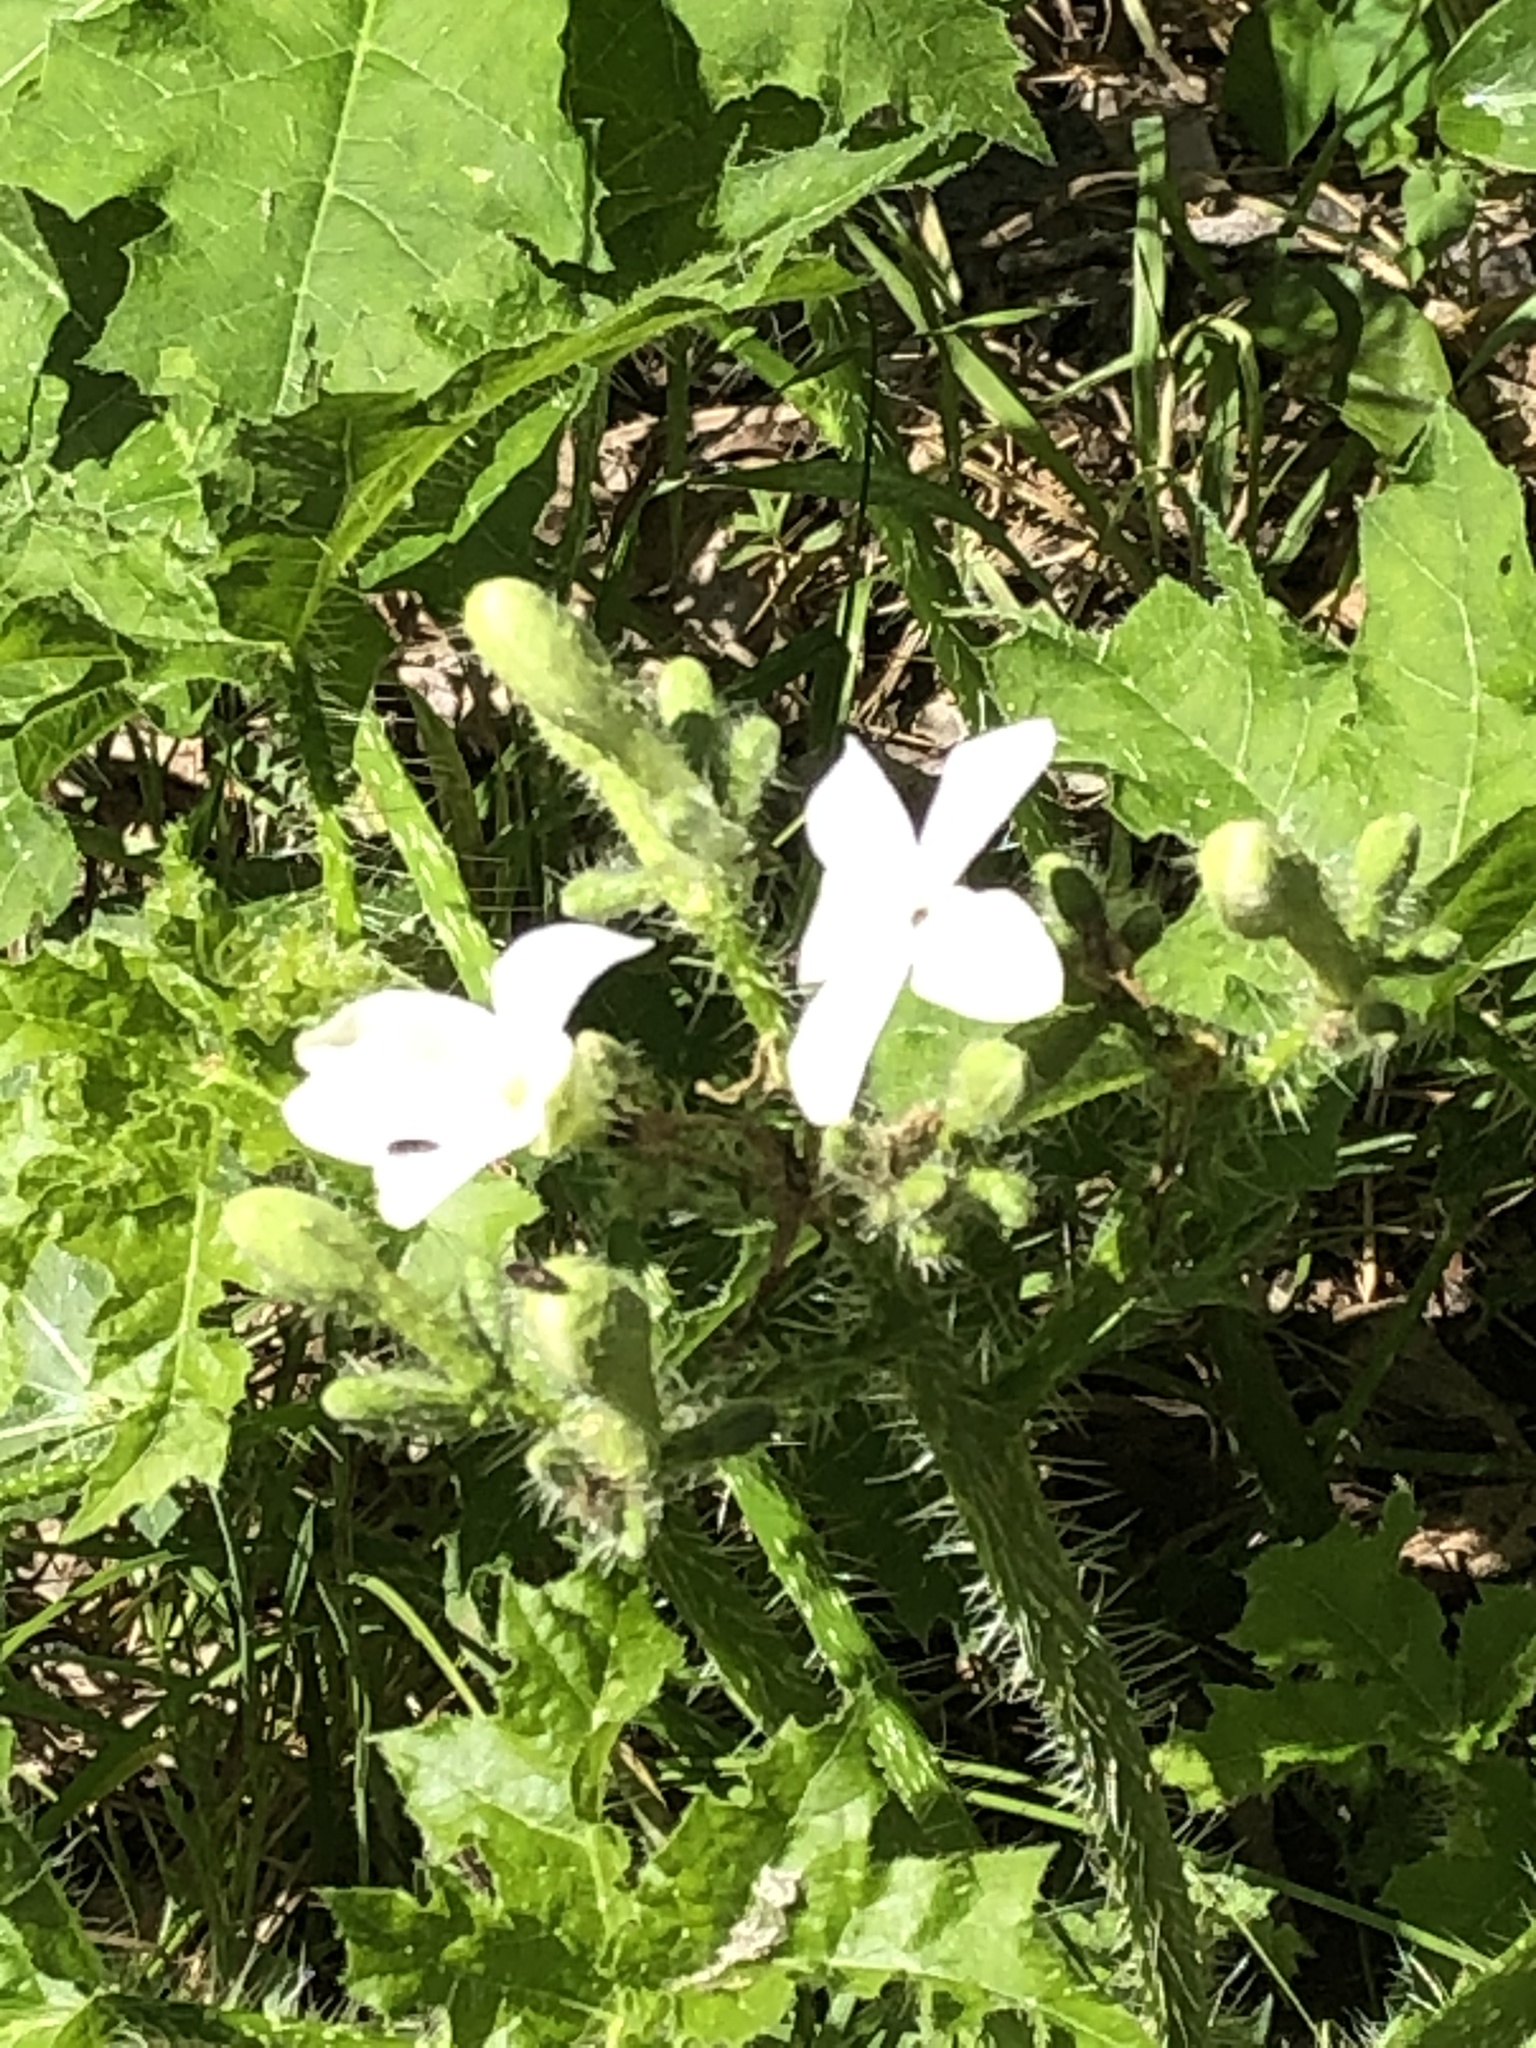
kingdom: Plantae
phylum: Tracheophyta
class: Magnoliopsida
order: Malpighiales
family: Euphorbiaceae
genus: Cnidoscolus
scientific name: Cnidoscolus texanus
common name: Texas bull-nettle
